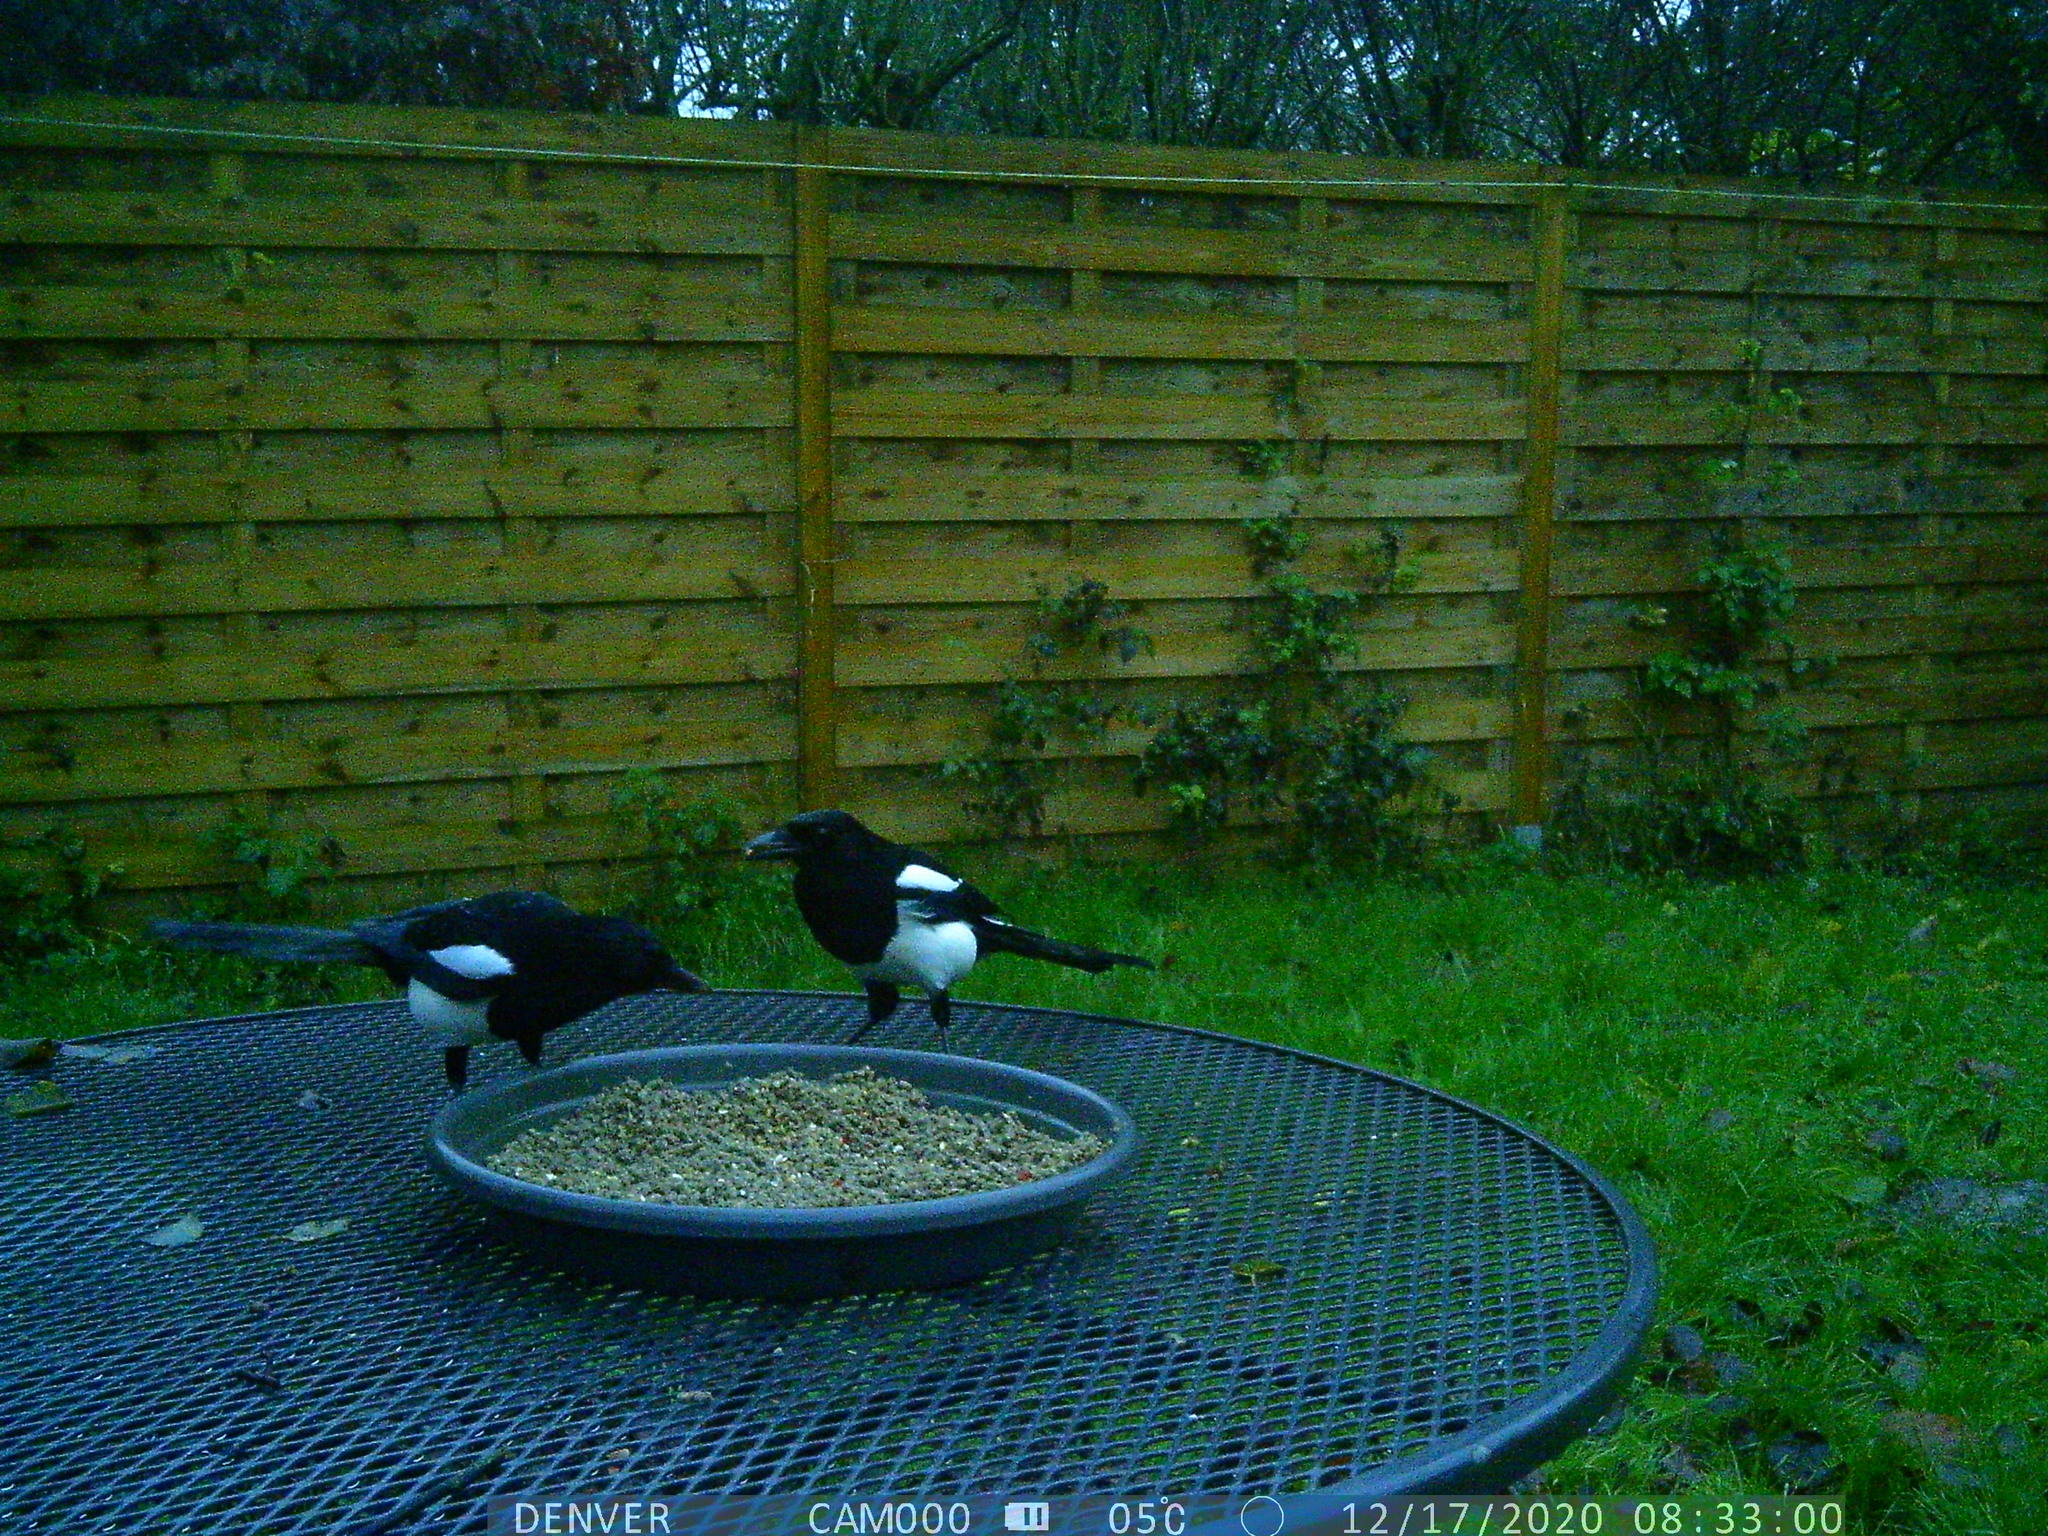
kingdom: Animalia
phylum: Chordata
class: Aves
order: Passeriformes
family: Corvidae
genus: Pica
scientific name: Pica pica
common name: Eurasian magpie
